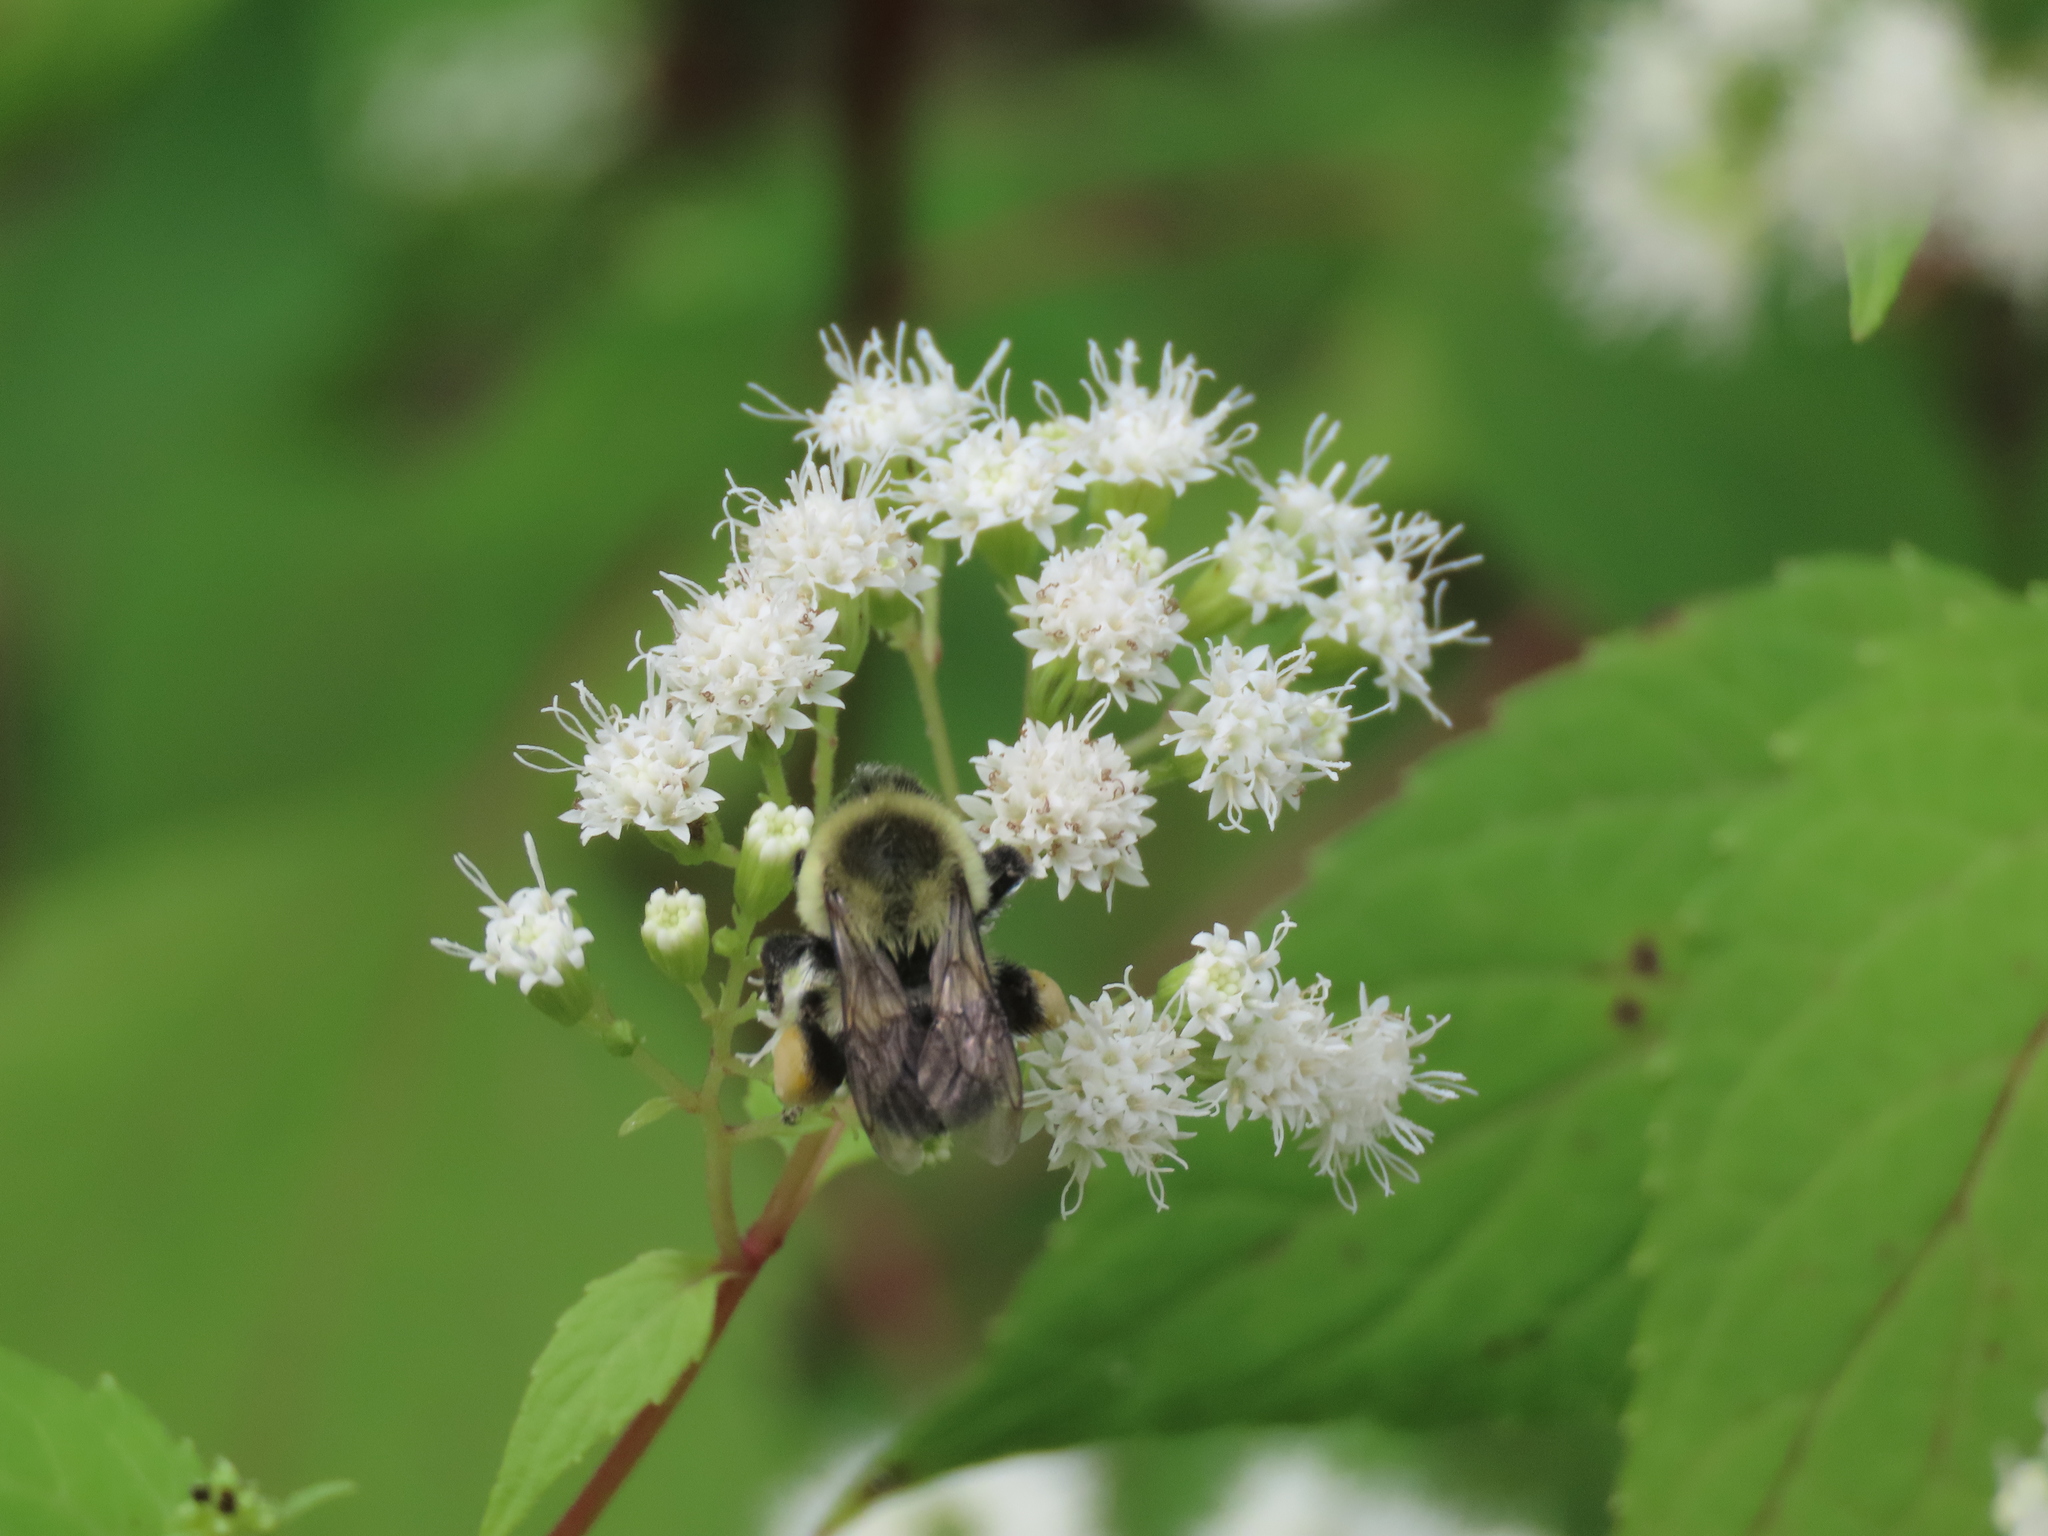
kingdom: Plantae
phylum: Tracheophyta
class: Magnoliopsida
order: Asterales
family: Asteraceae
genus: Ageratina
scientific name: Ageratina altissima
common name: White snakeroot
